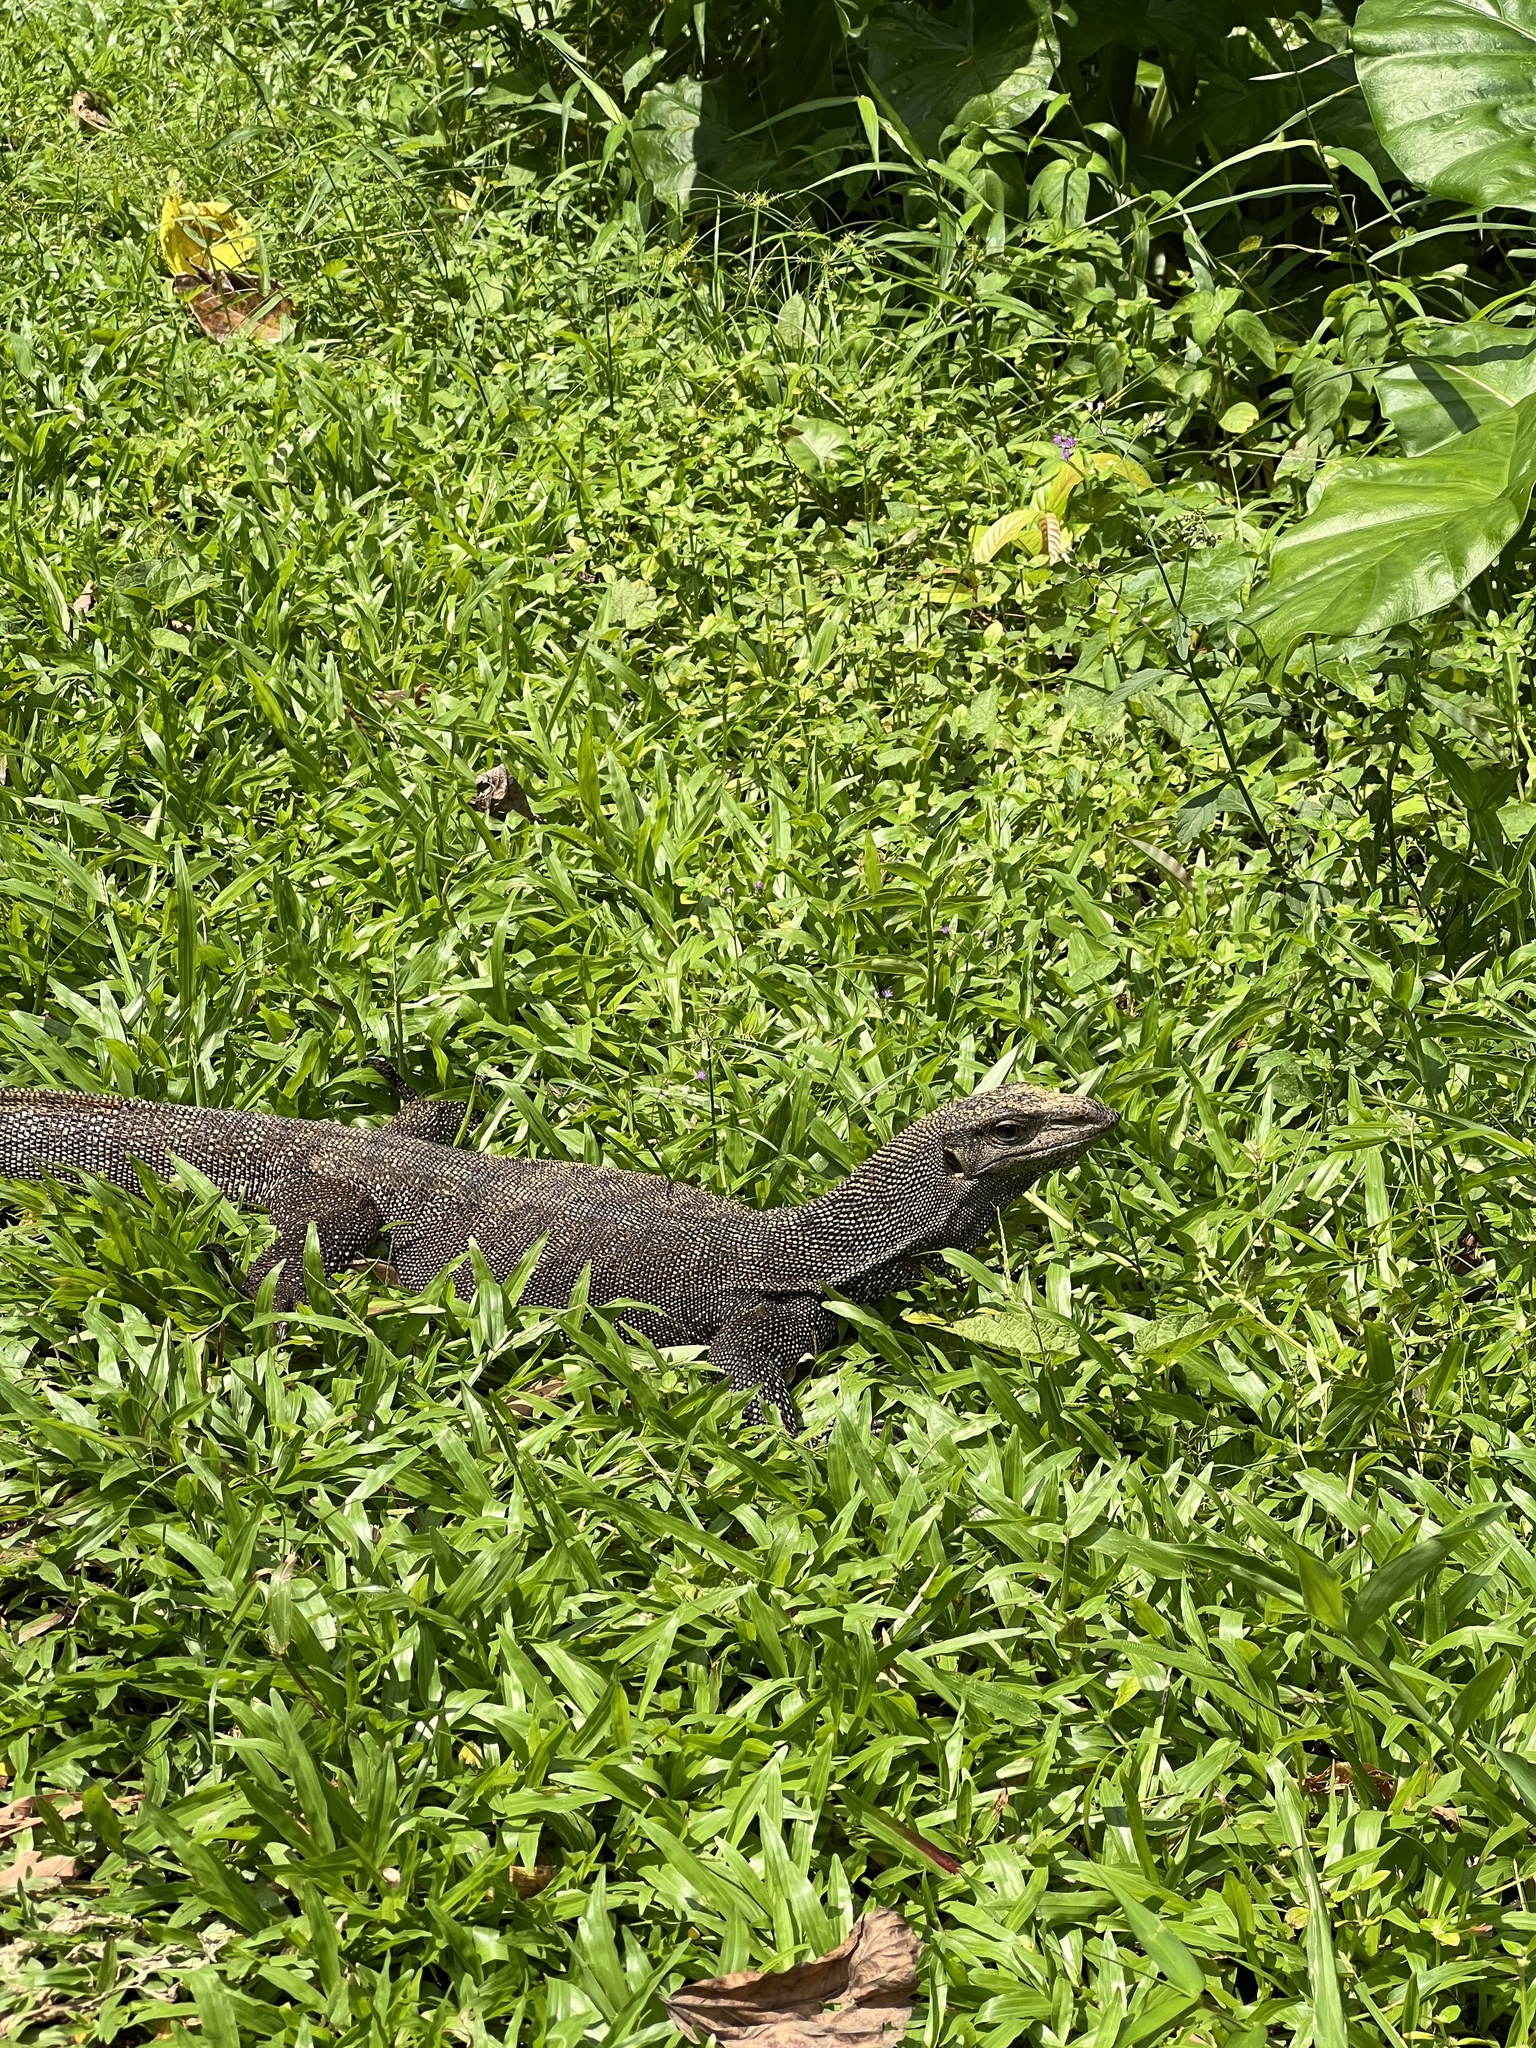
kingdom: Animalia
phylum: Chordata
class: Squamata
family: Varanidae
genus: Varanus
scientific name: Varanus nebulosus
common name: Clouded monitor
